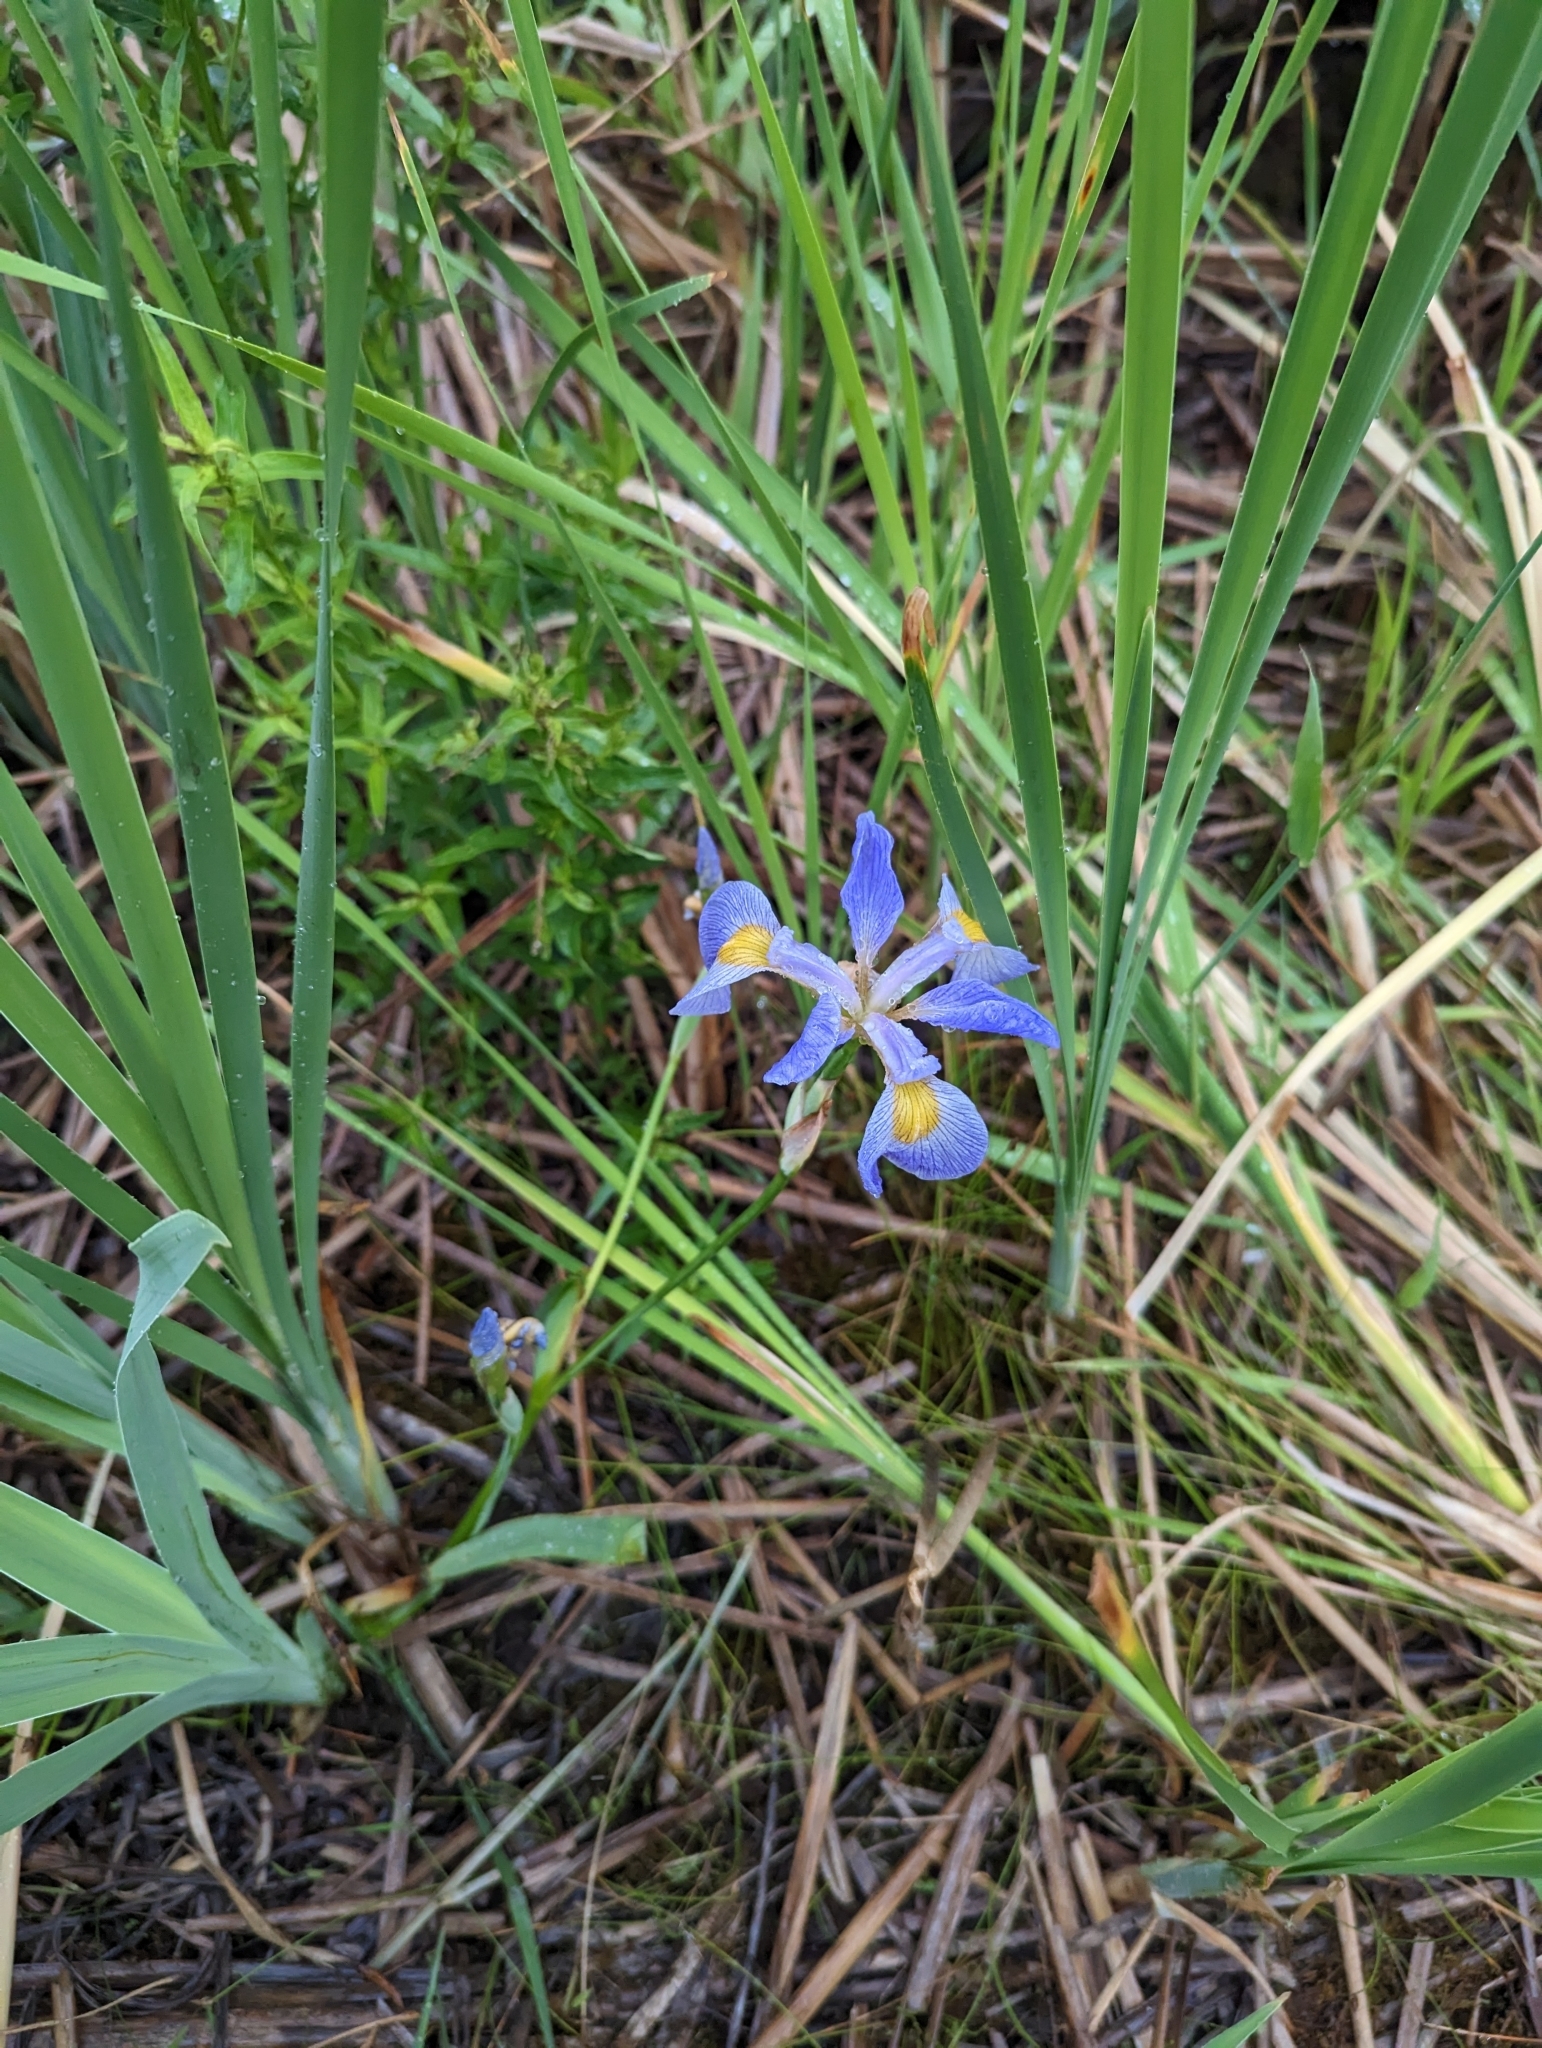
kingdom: Plantae
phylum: Tracheophyta
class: Liliopsida
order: Asparagales
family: Iridaceae
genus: Iris
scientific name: Iris virginica
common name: Southern blue flag
